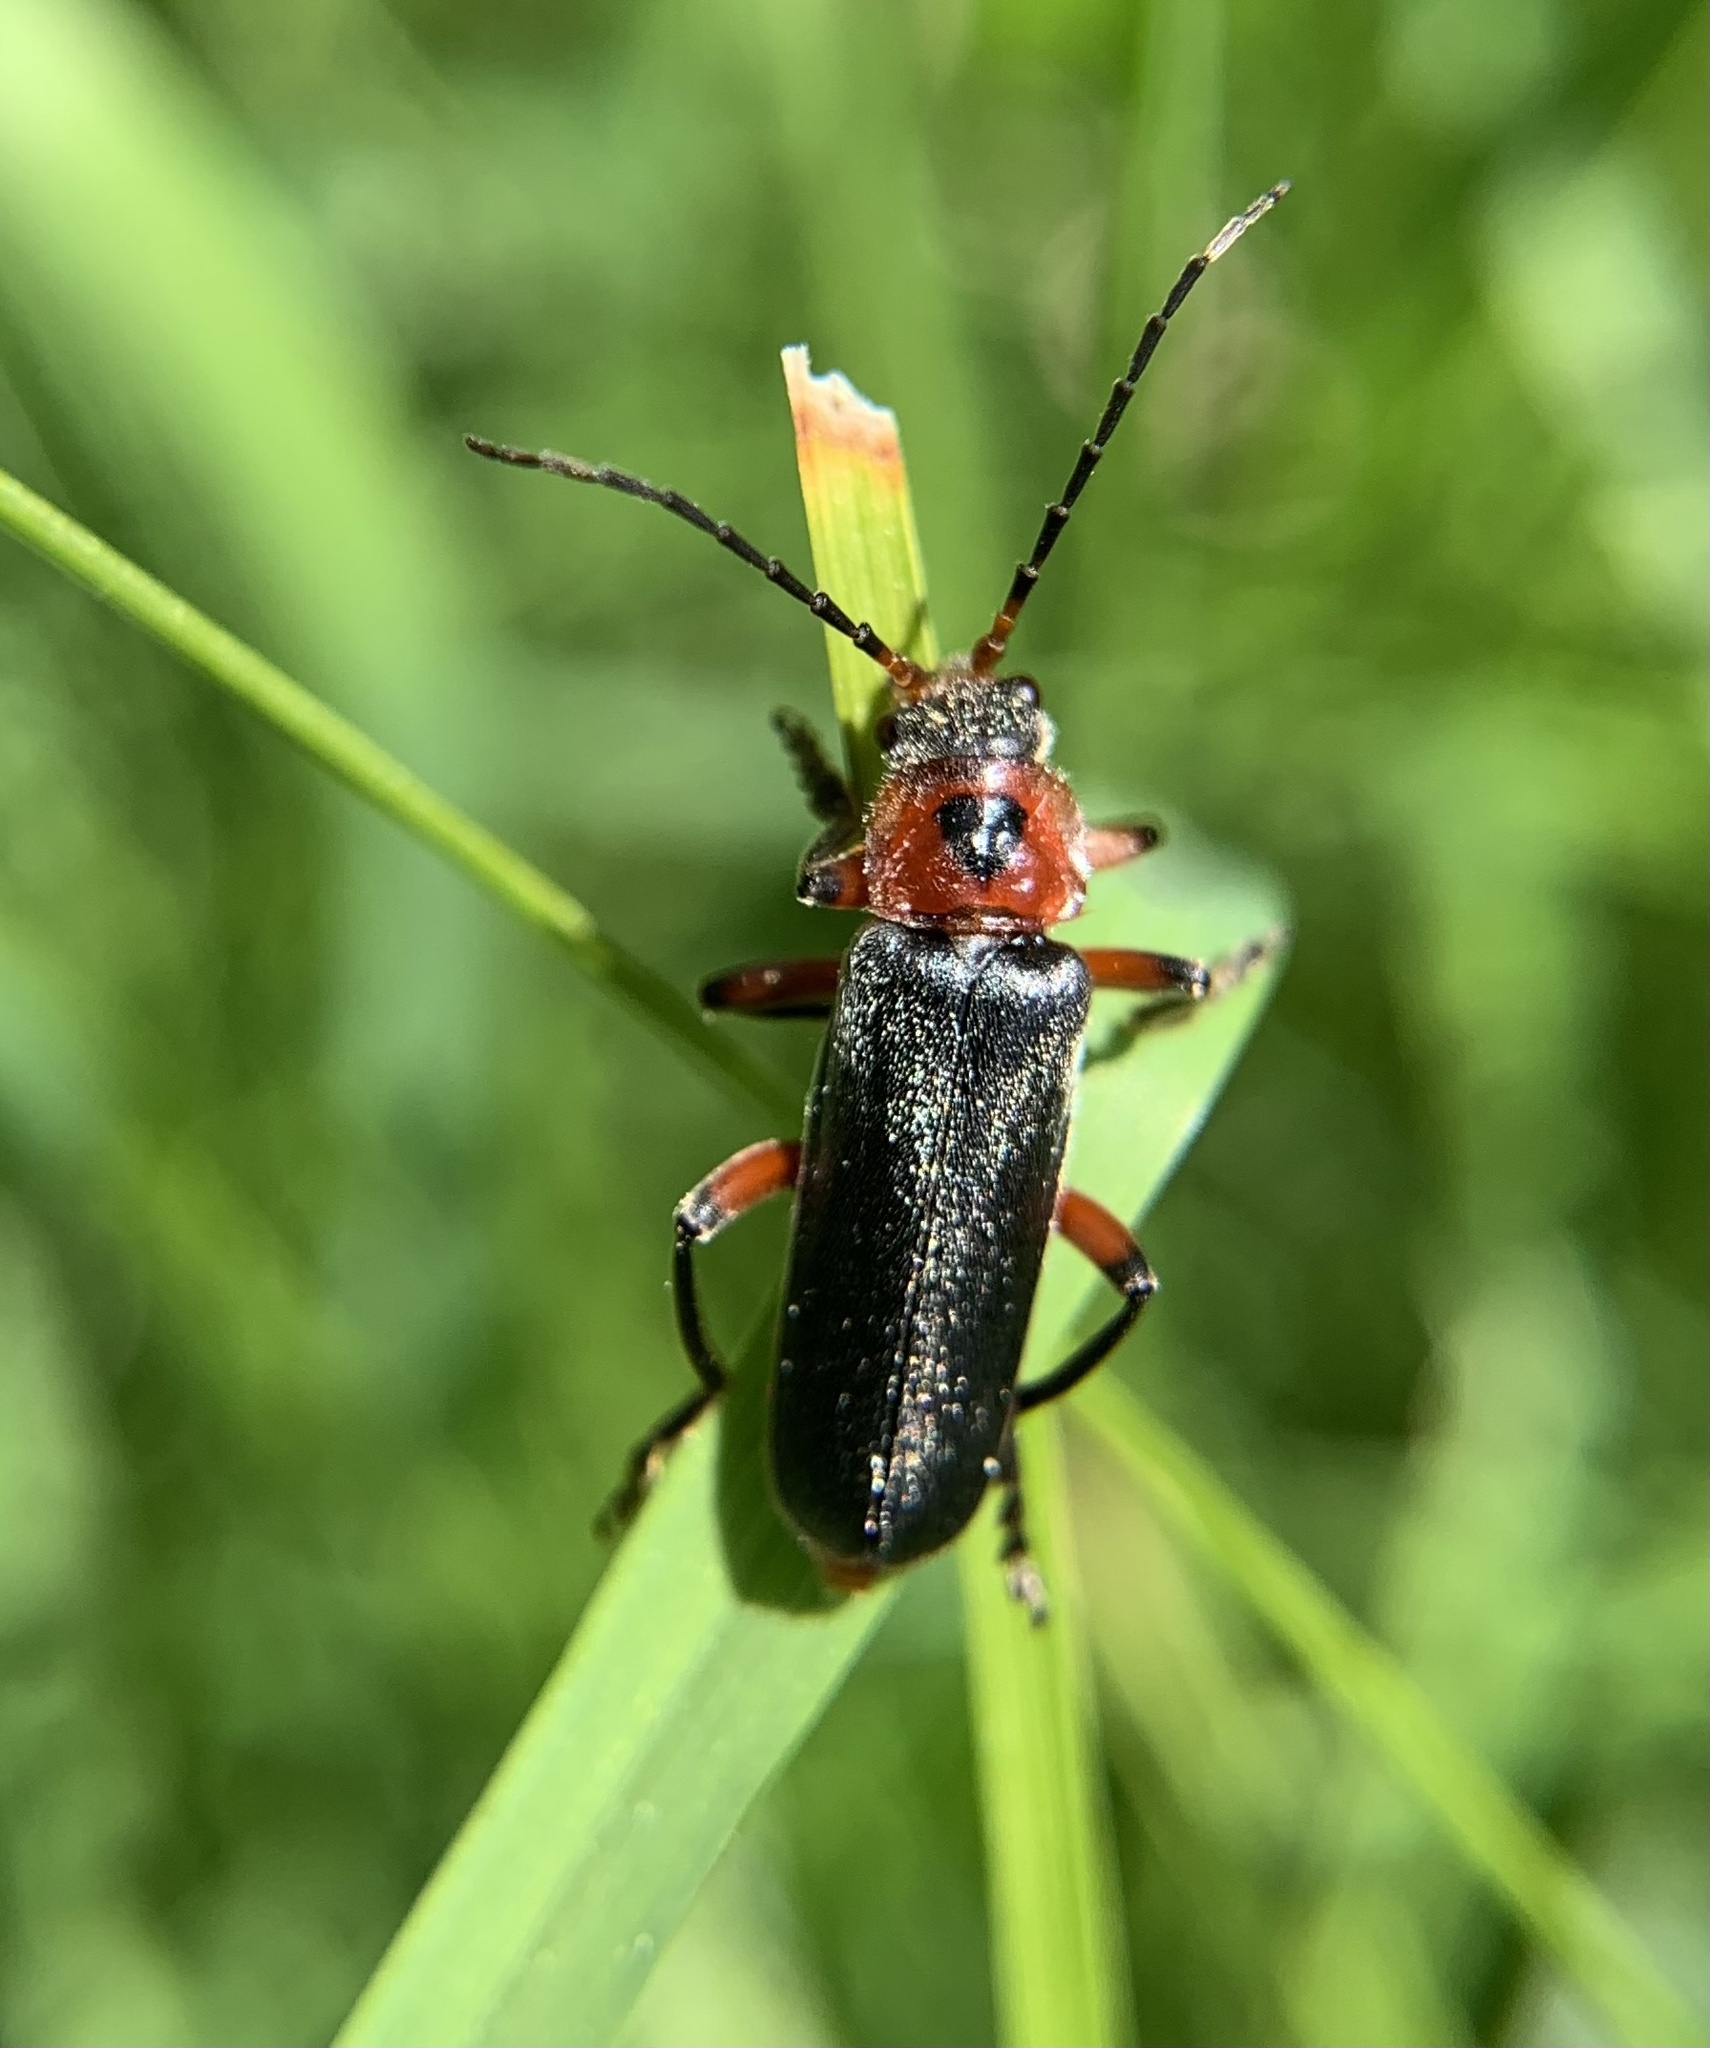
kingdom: Animalia
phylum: Arthropoda
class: Insecta
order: Coleoptera
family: Cantharidae
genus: Cantharis
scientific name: Cantharis rustica
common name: Soldier beetle
